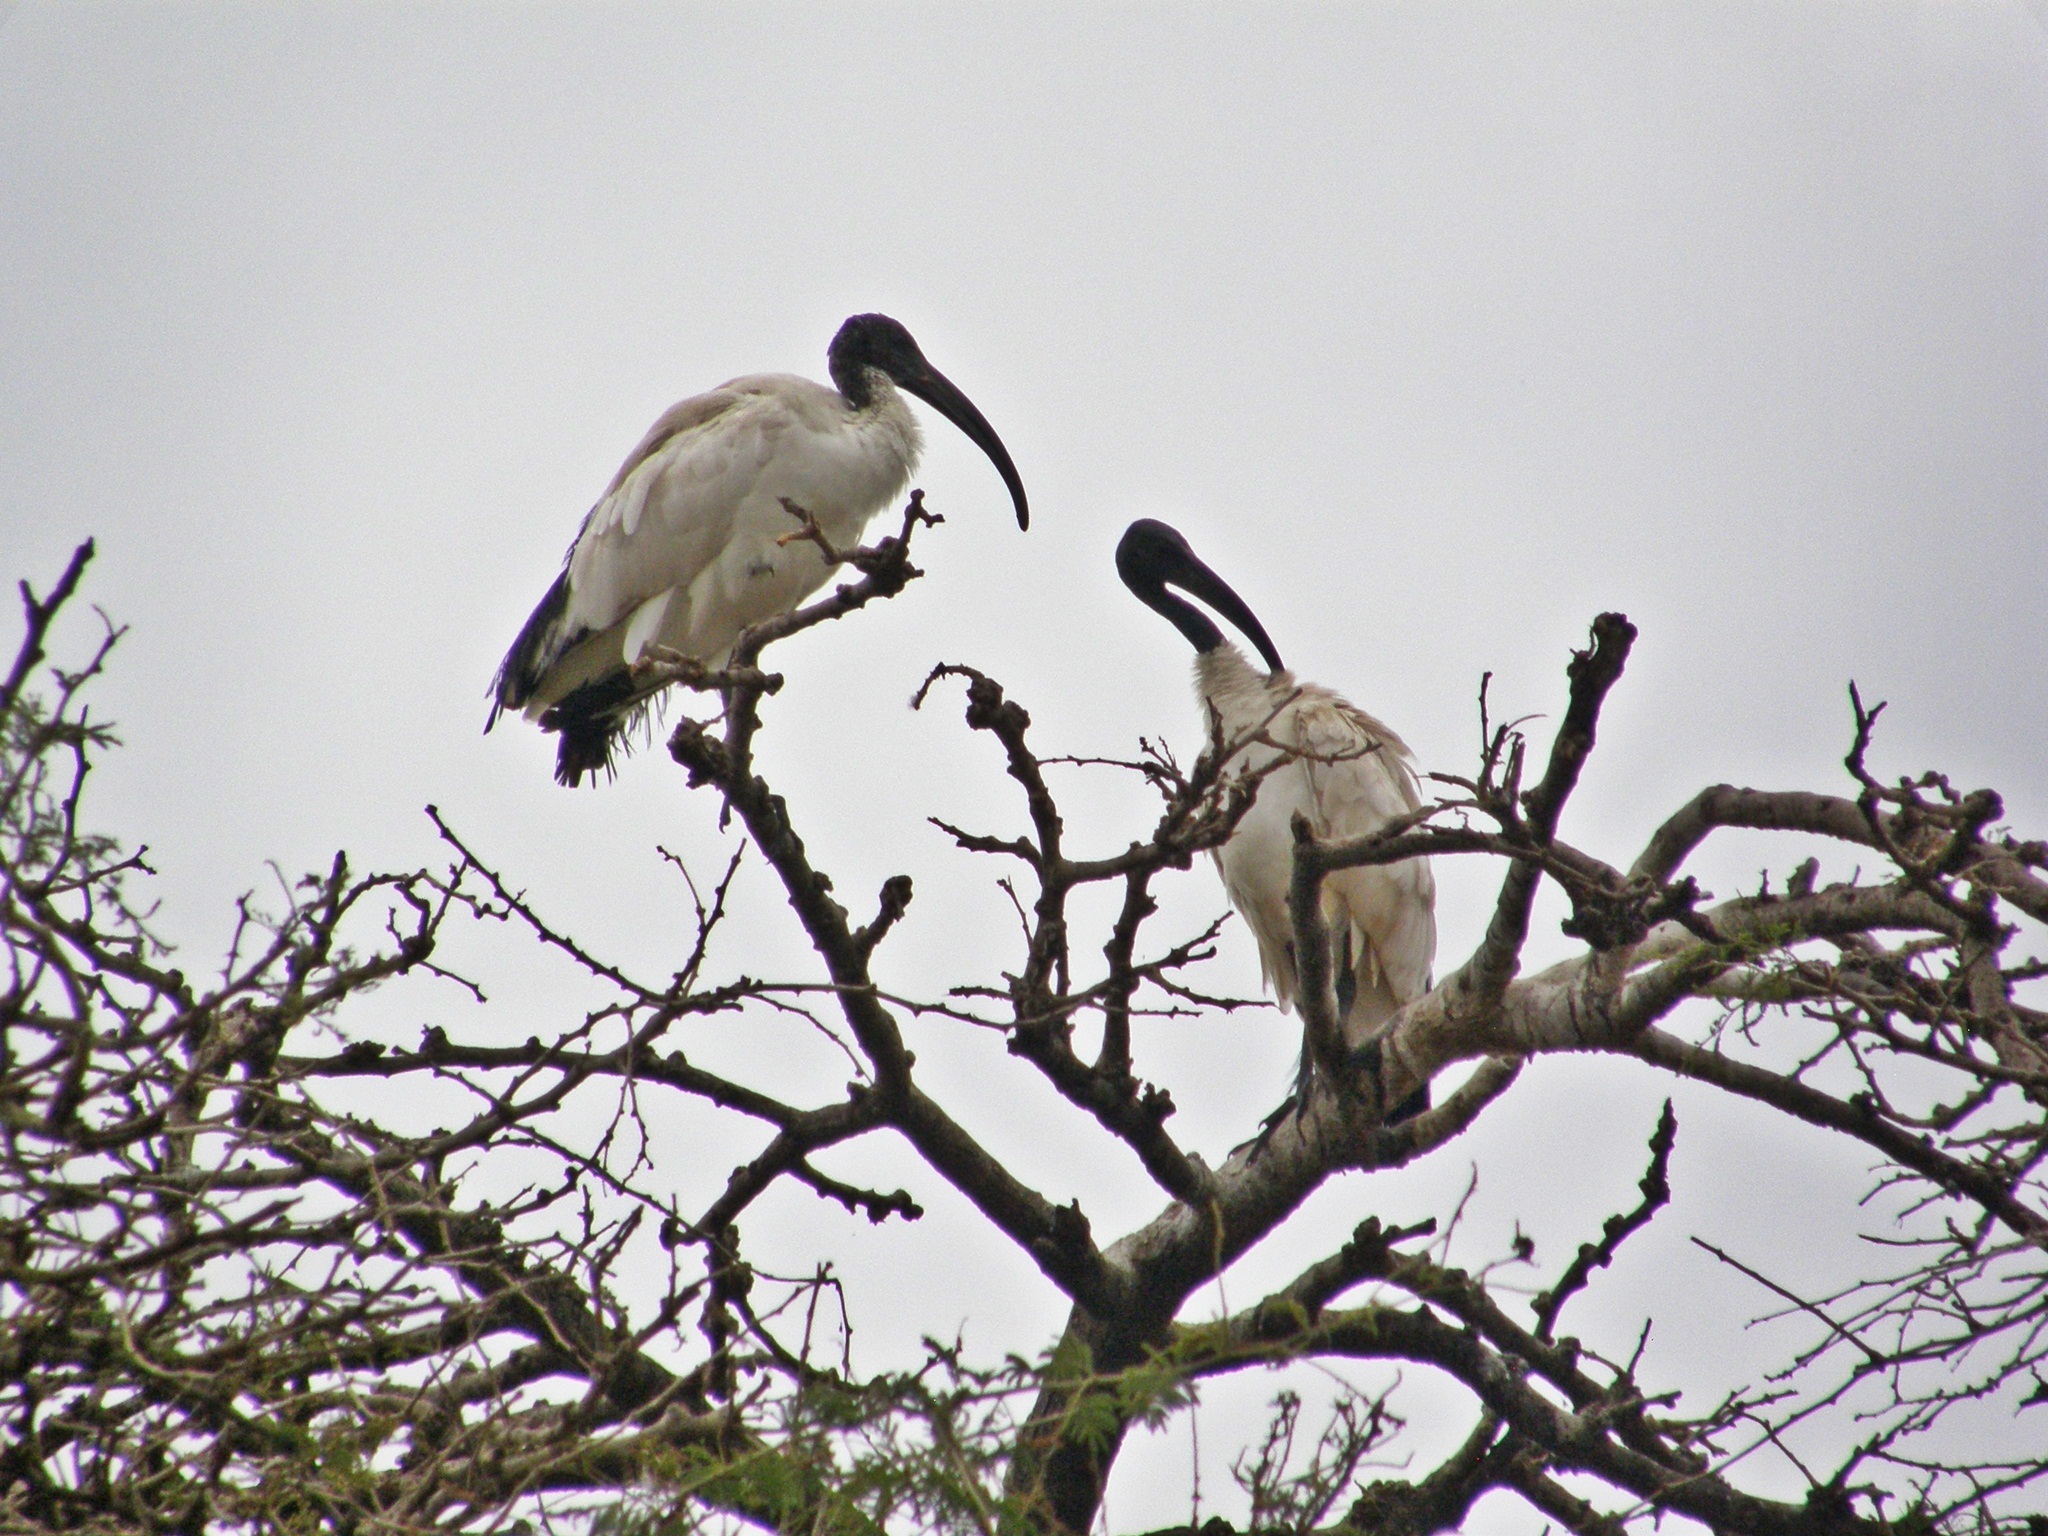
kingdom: Animalia
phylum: Chordata
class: Aves
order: Pelecaniformes
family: Threskiornithidae
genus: Threskiornis
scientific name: Threskiornis aethiopicus
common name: Sacred ibis
